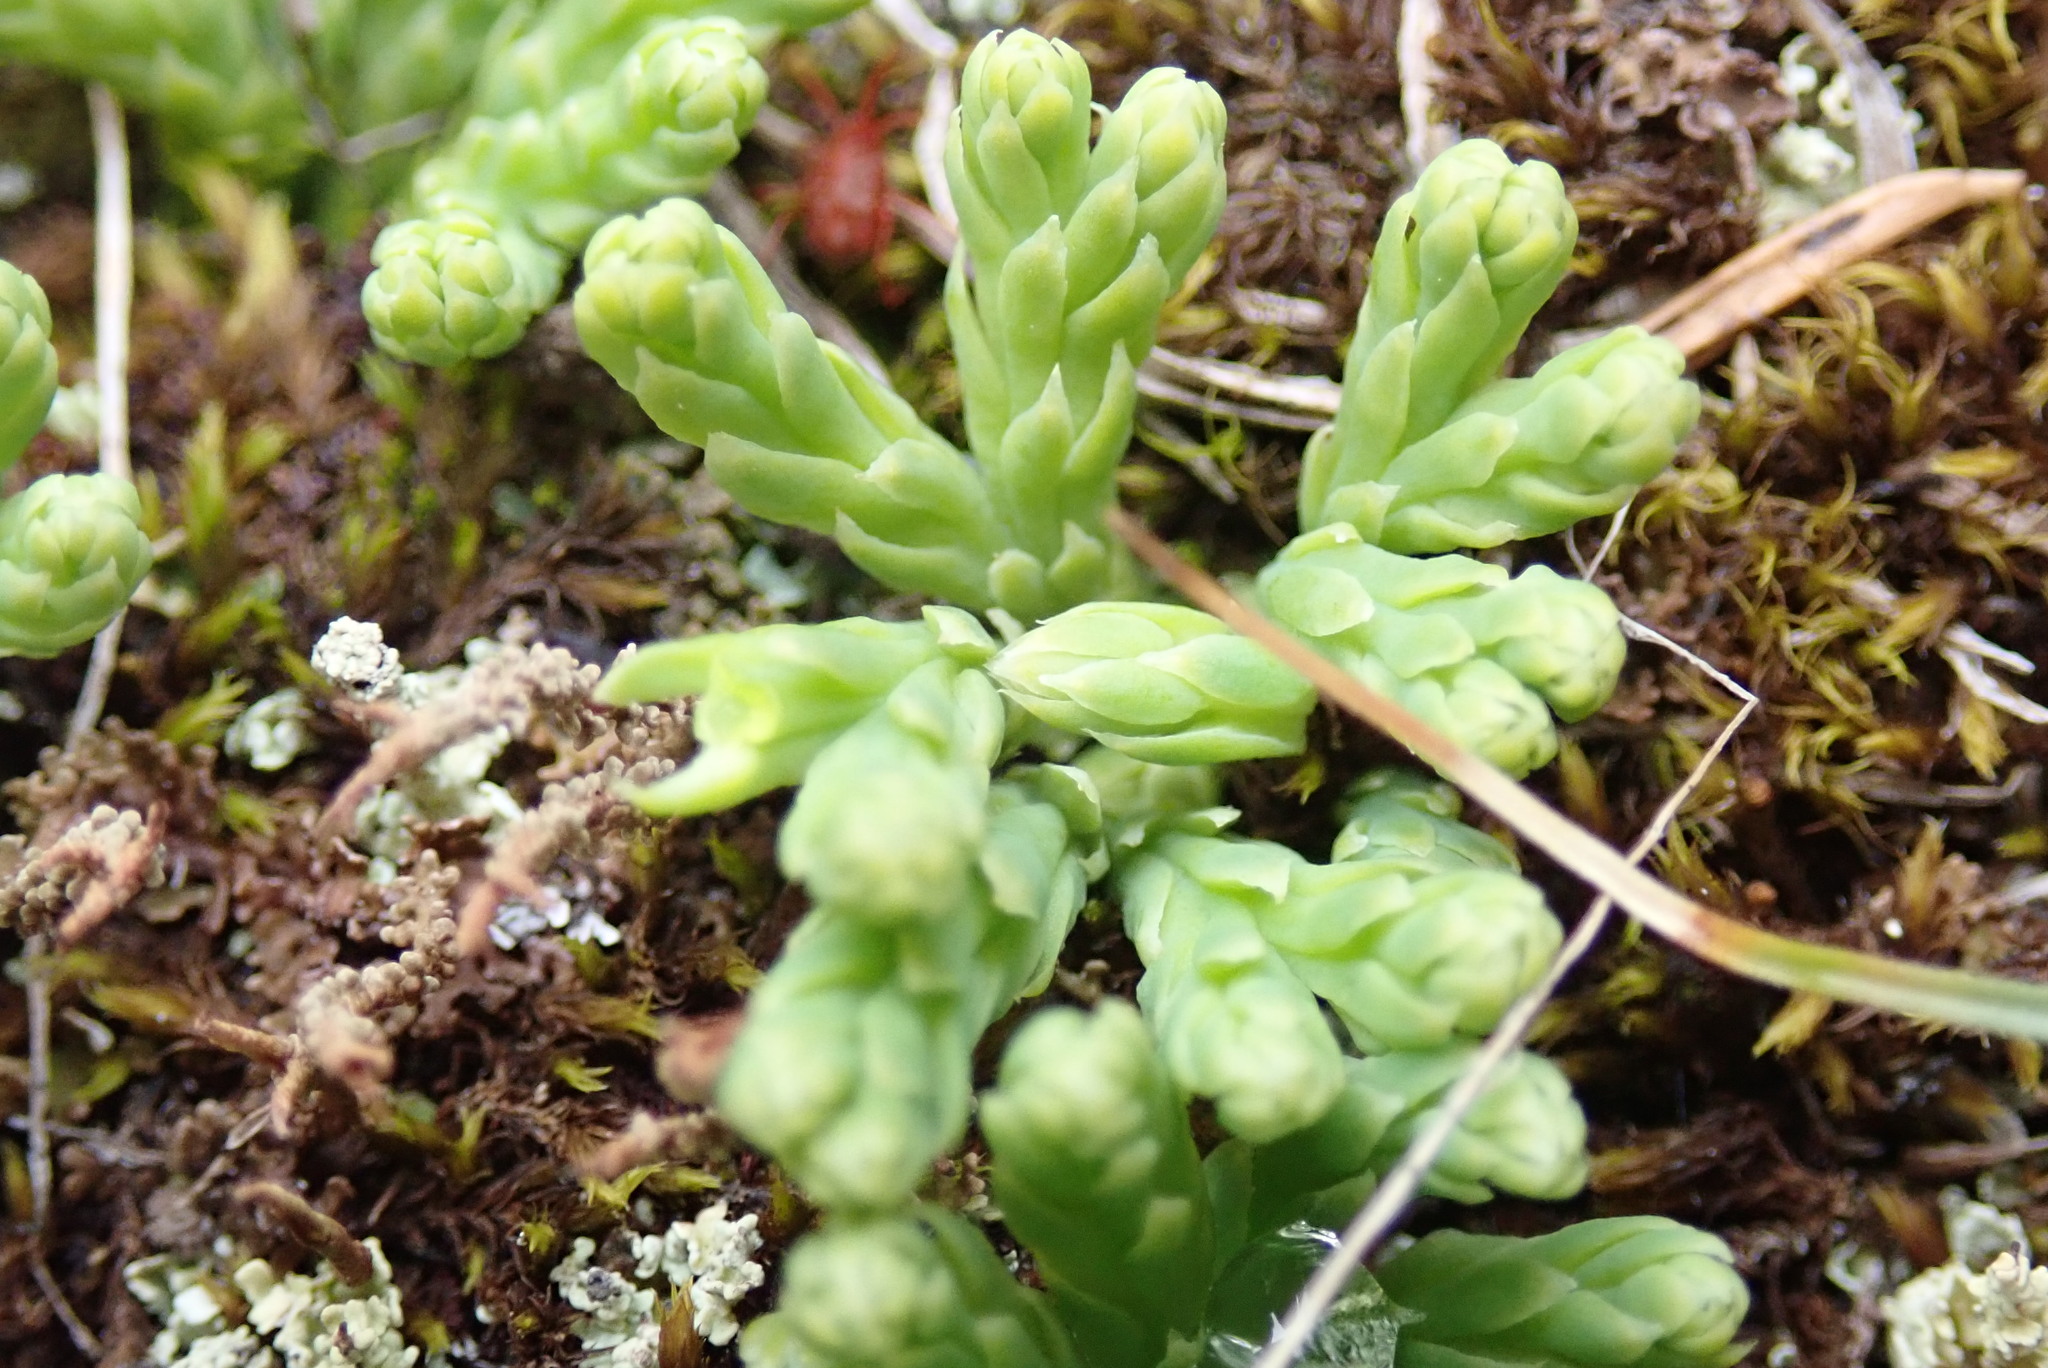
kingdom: Plantae
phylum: Tracheophyta
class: Lycopodiopsida
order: Lycopodiales
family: Lycopodiaceae
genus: Diphasiastrum
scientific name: Diphasiastrum alpinum
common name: Alpine clubmoss
